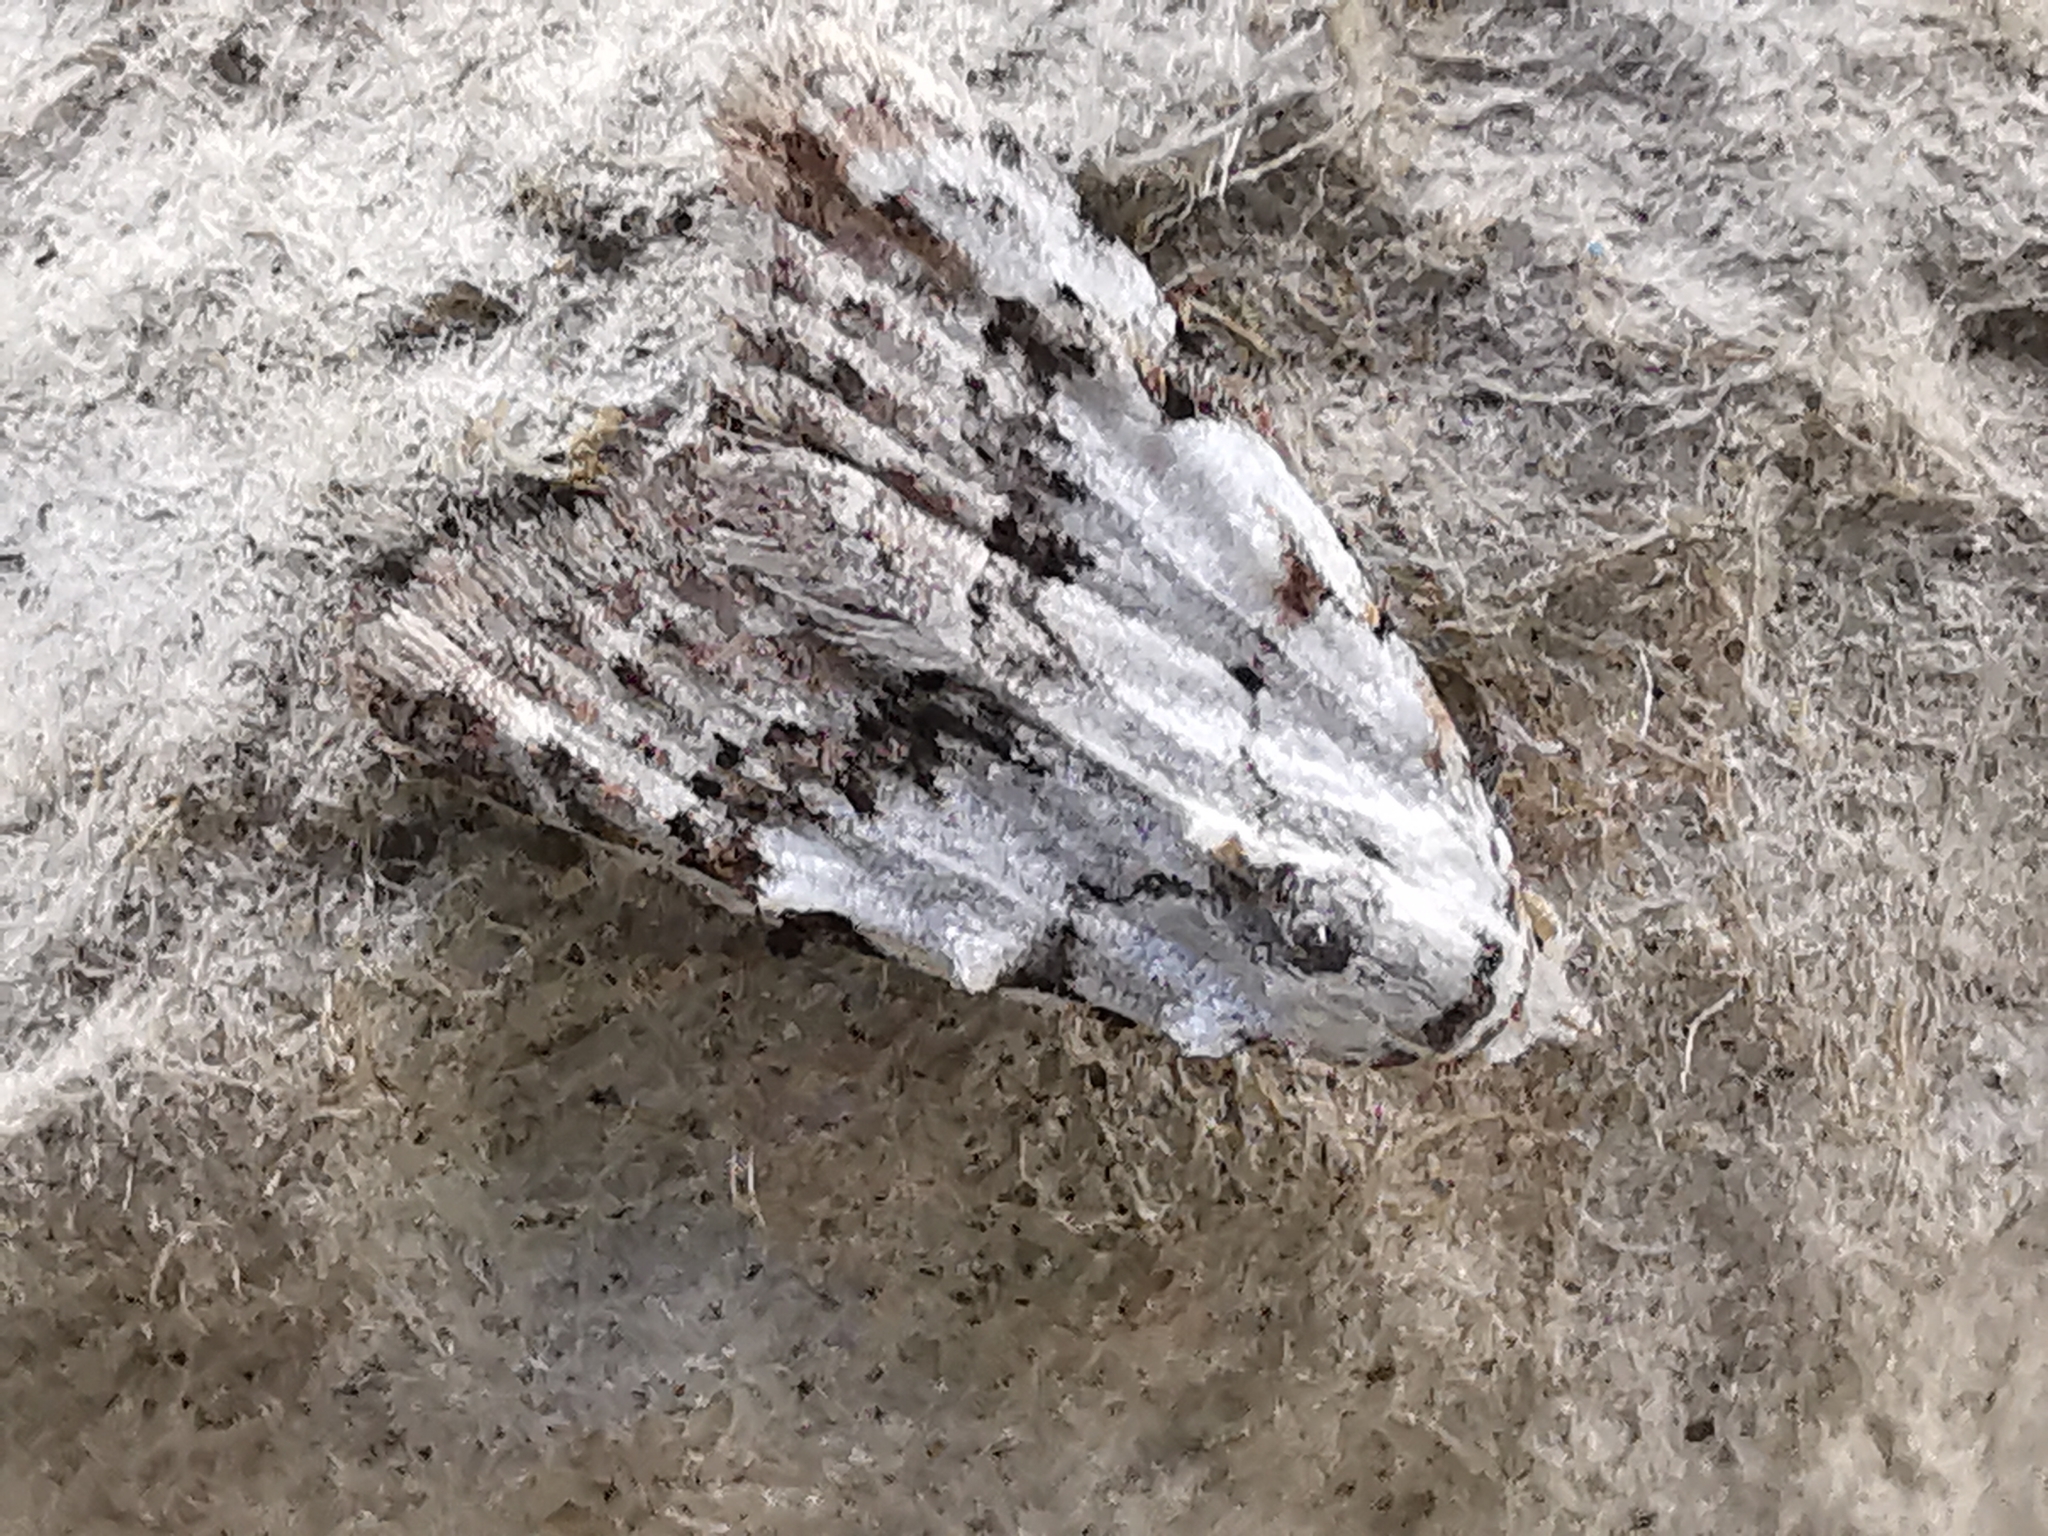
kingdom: Animalia
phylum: Arthropoda
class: Insecta
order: Lepidoptera
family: Nolidae
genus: Nola
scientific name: Nola confusalis
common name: Least black arches
